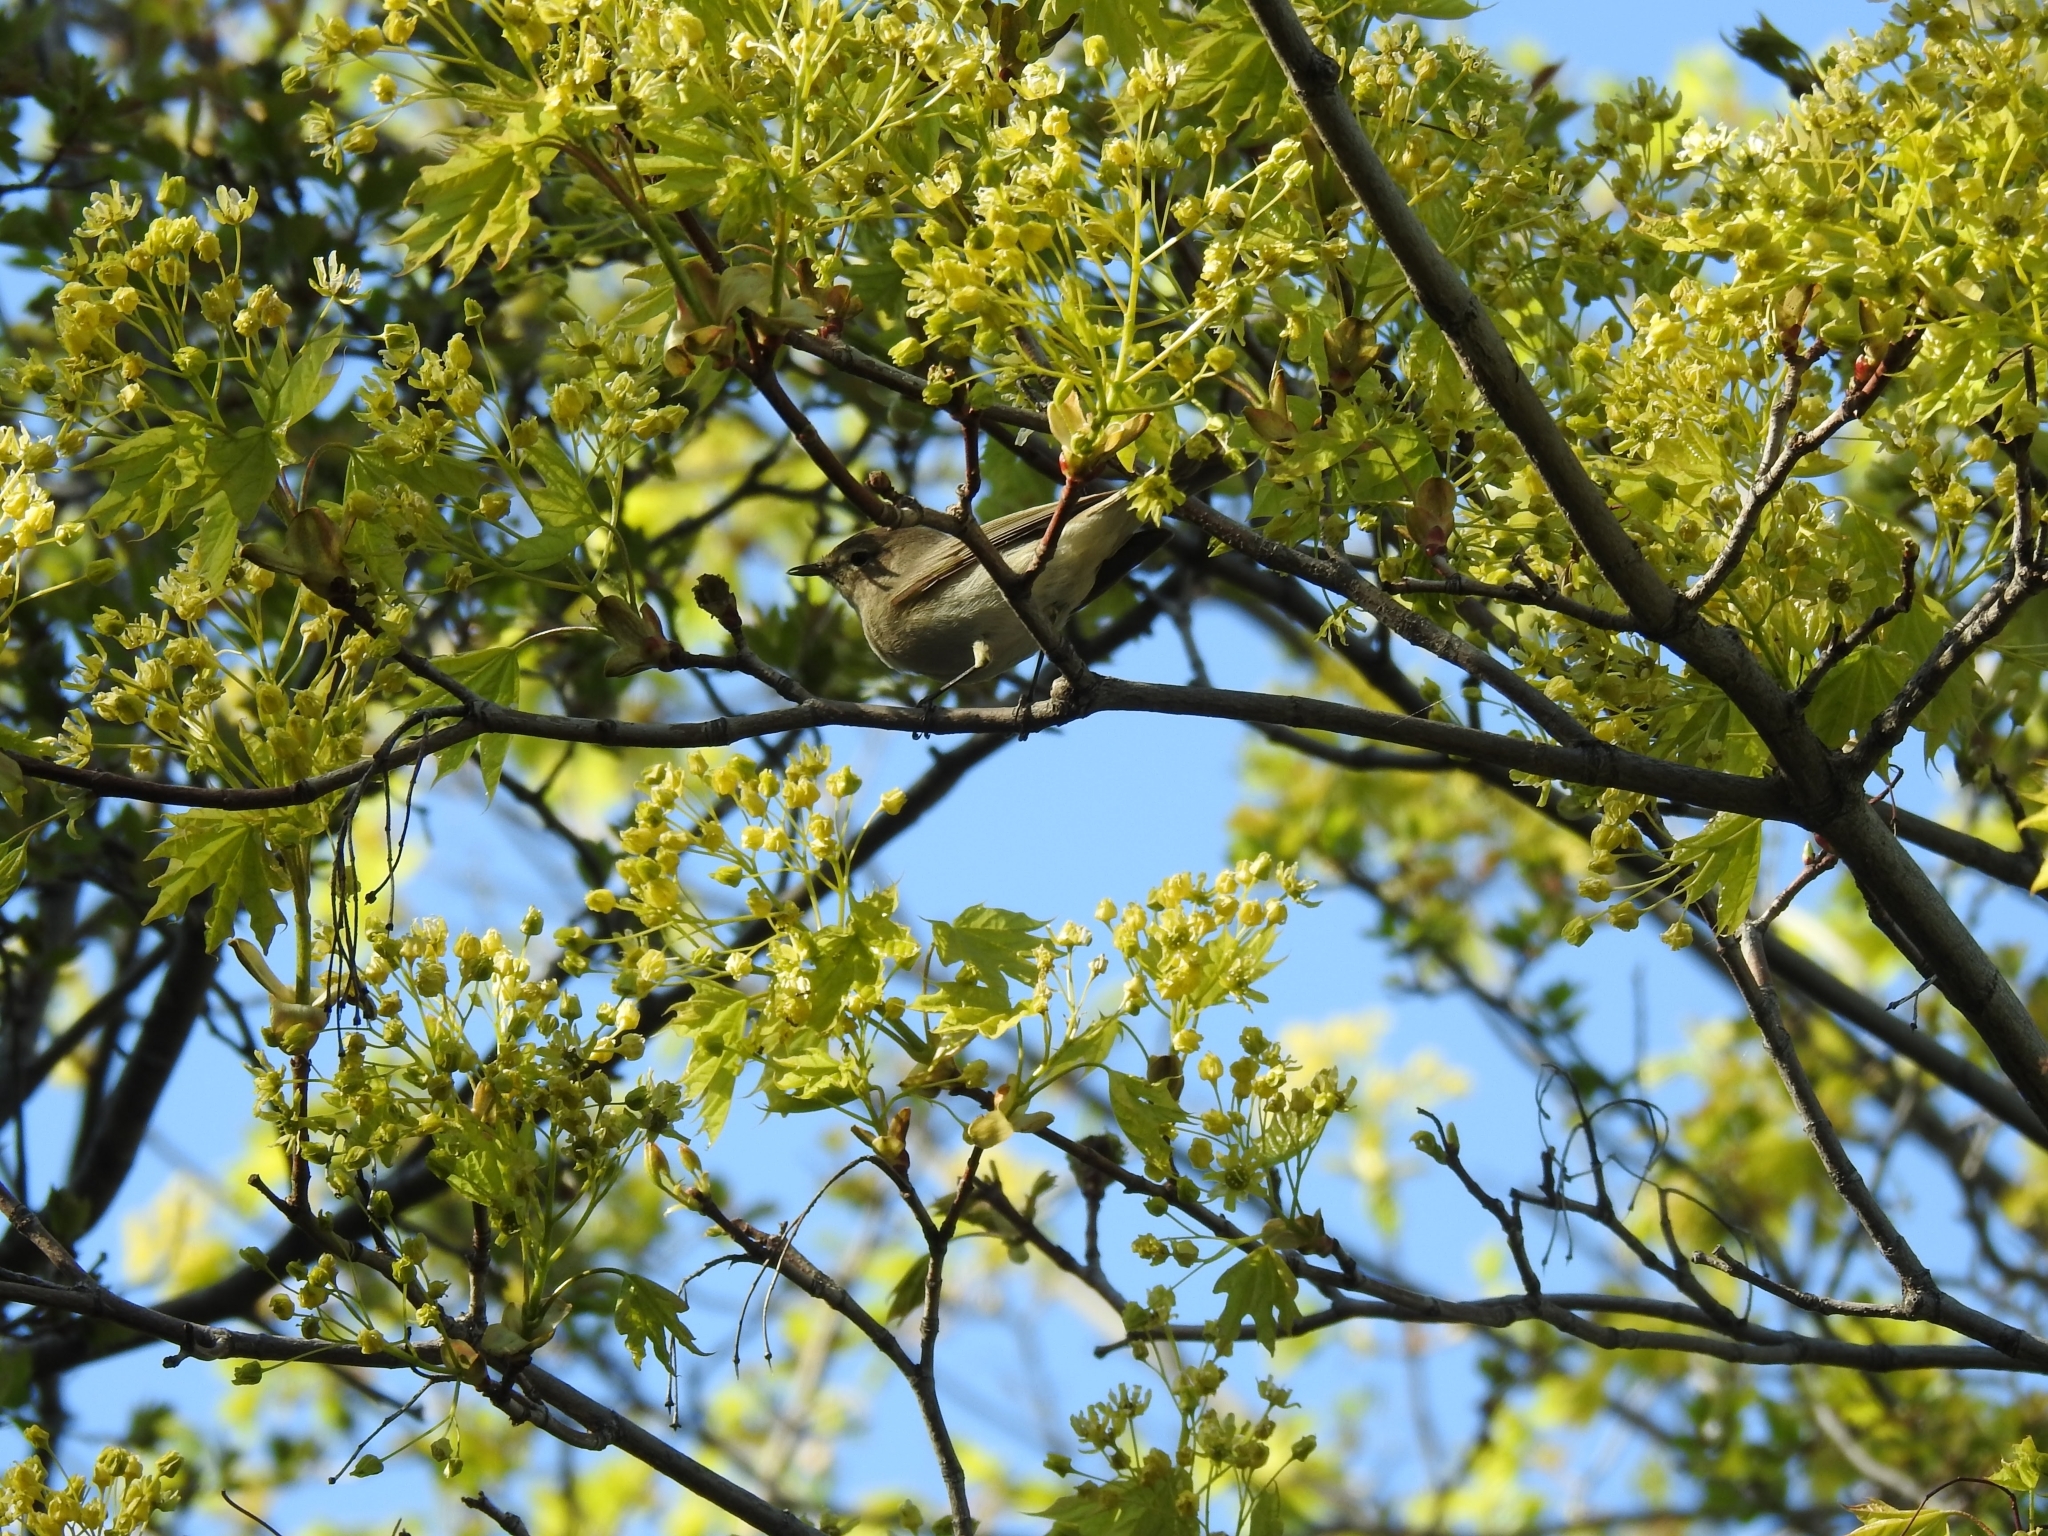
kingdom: Animalia
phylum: Chordata
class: Aves
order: Passeriformes
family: Phylloscopidae
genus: Phylloscopus
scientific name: Phylloscopus collybita
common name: Common chiffchaff
